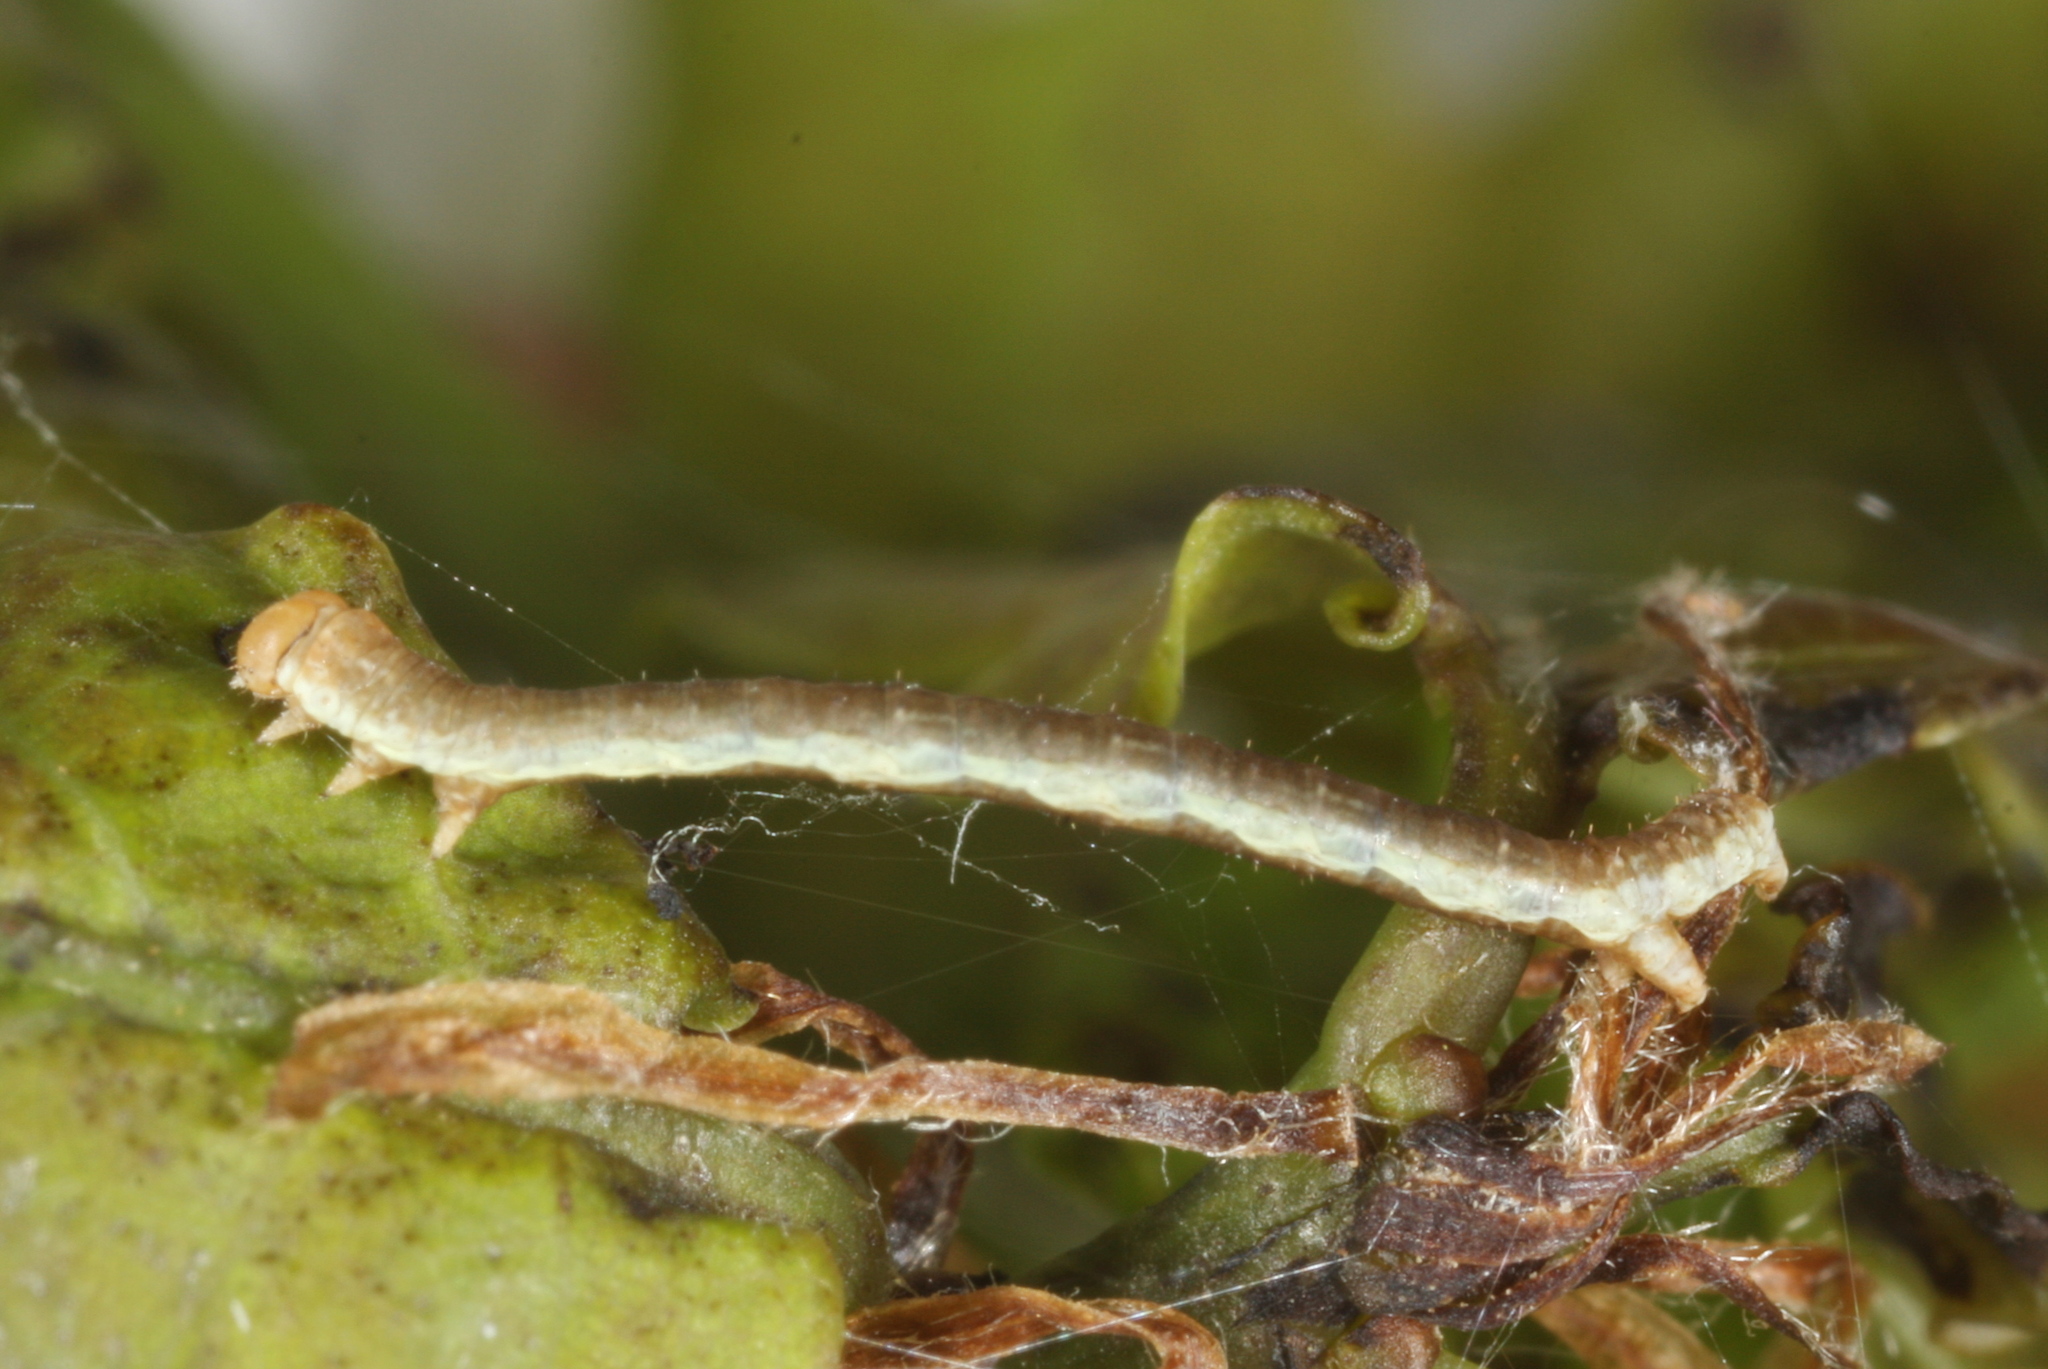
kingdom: Animalia
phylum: Arthropoda
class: Insecta
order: Lepidoptera
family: Geometridae
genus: Ennomos
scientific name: Ennomos erosaria
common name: September thorn
